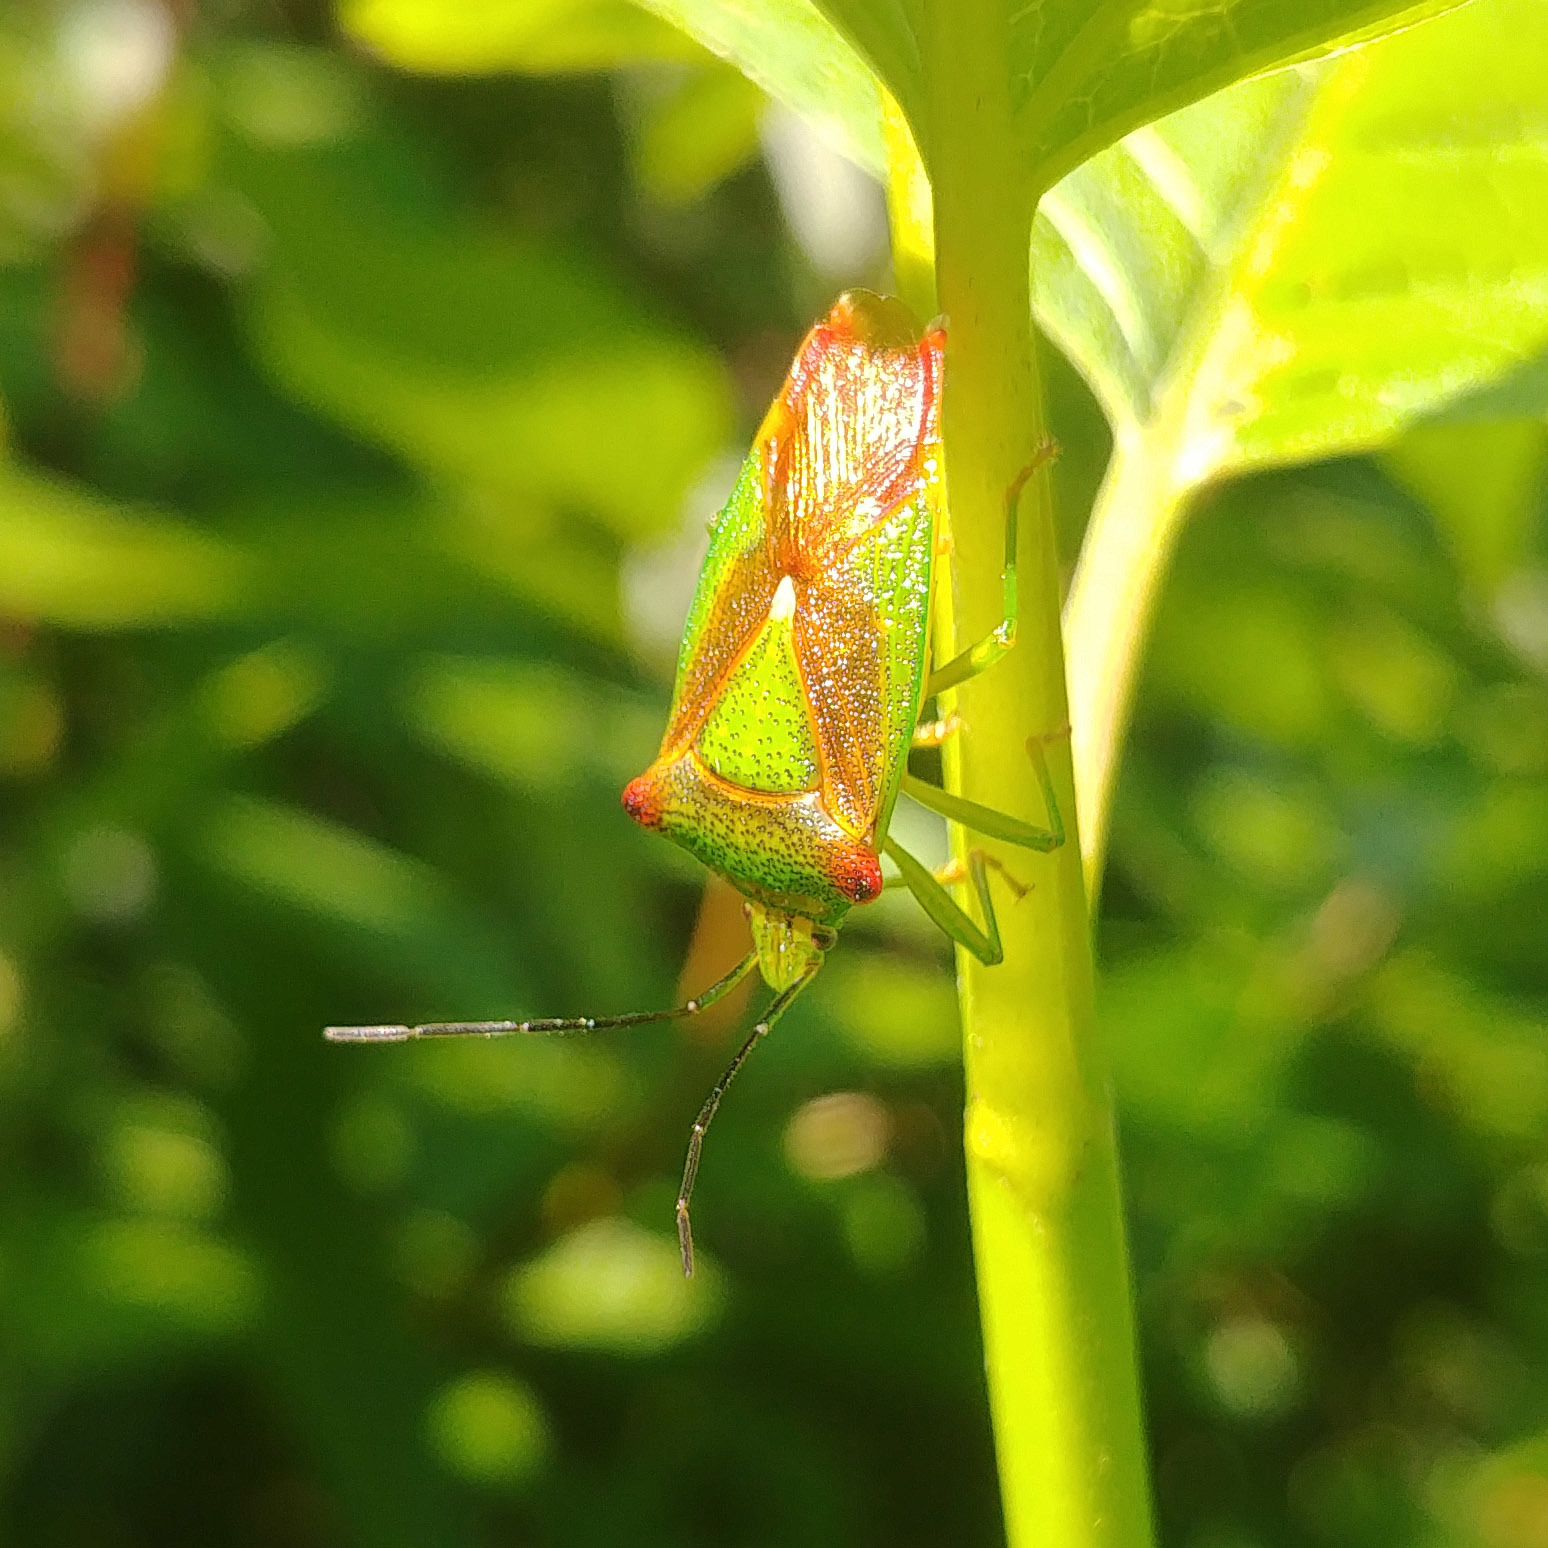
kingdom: Animalia
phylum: Arthropoda
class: Insecta
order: Hemiptera
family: Acanthosomatidae
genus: Acanthosoma
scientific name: Acanthosoma haemorrhoidale
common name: Hawthorn shieldbug
